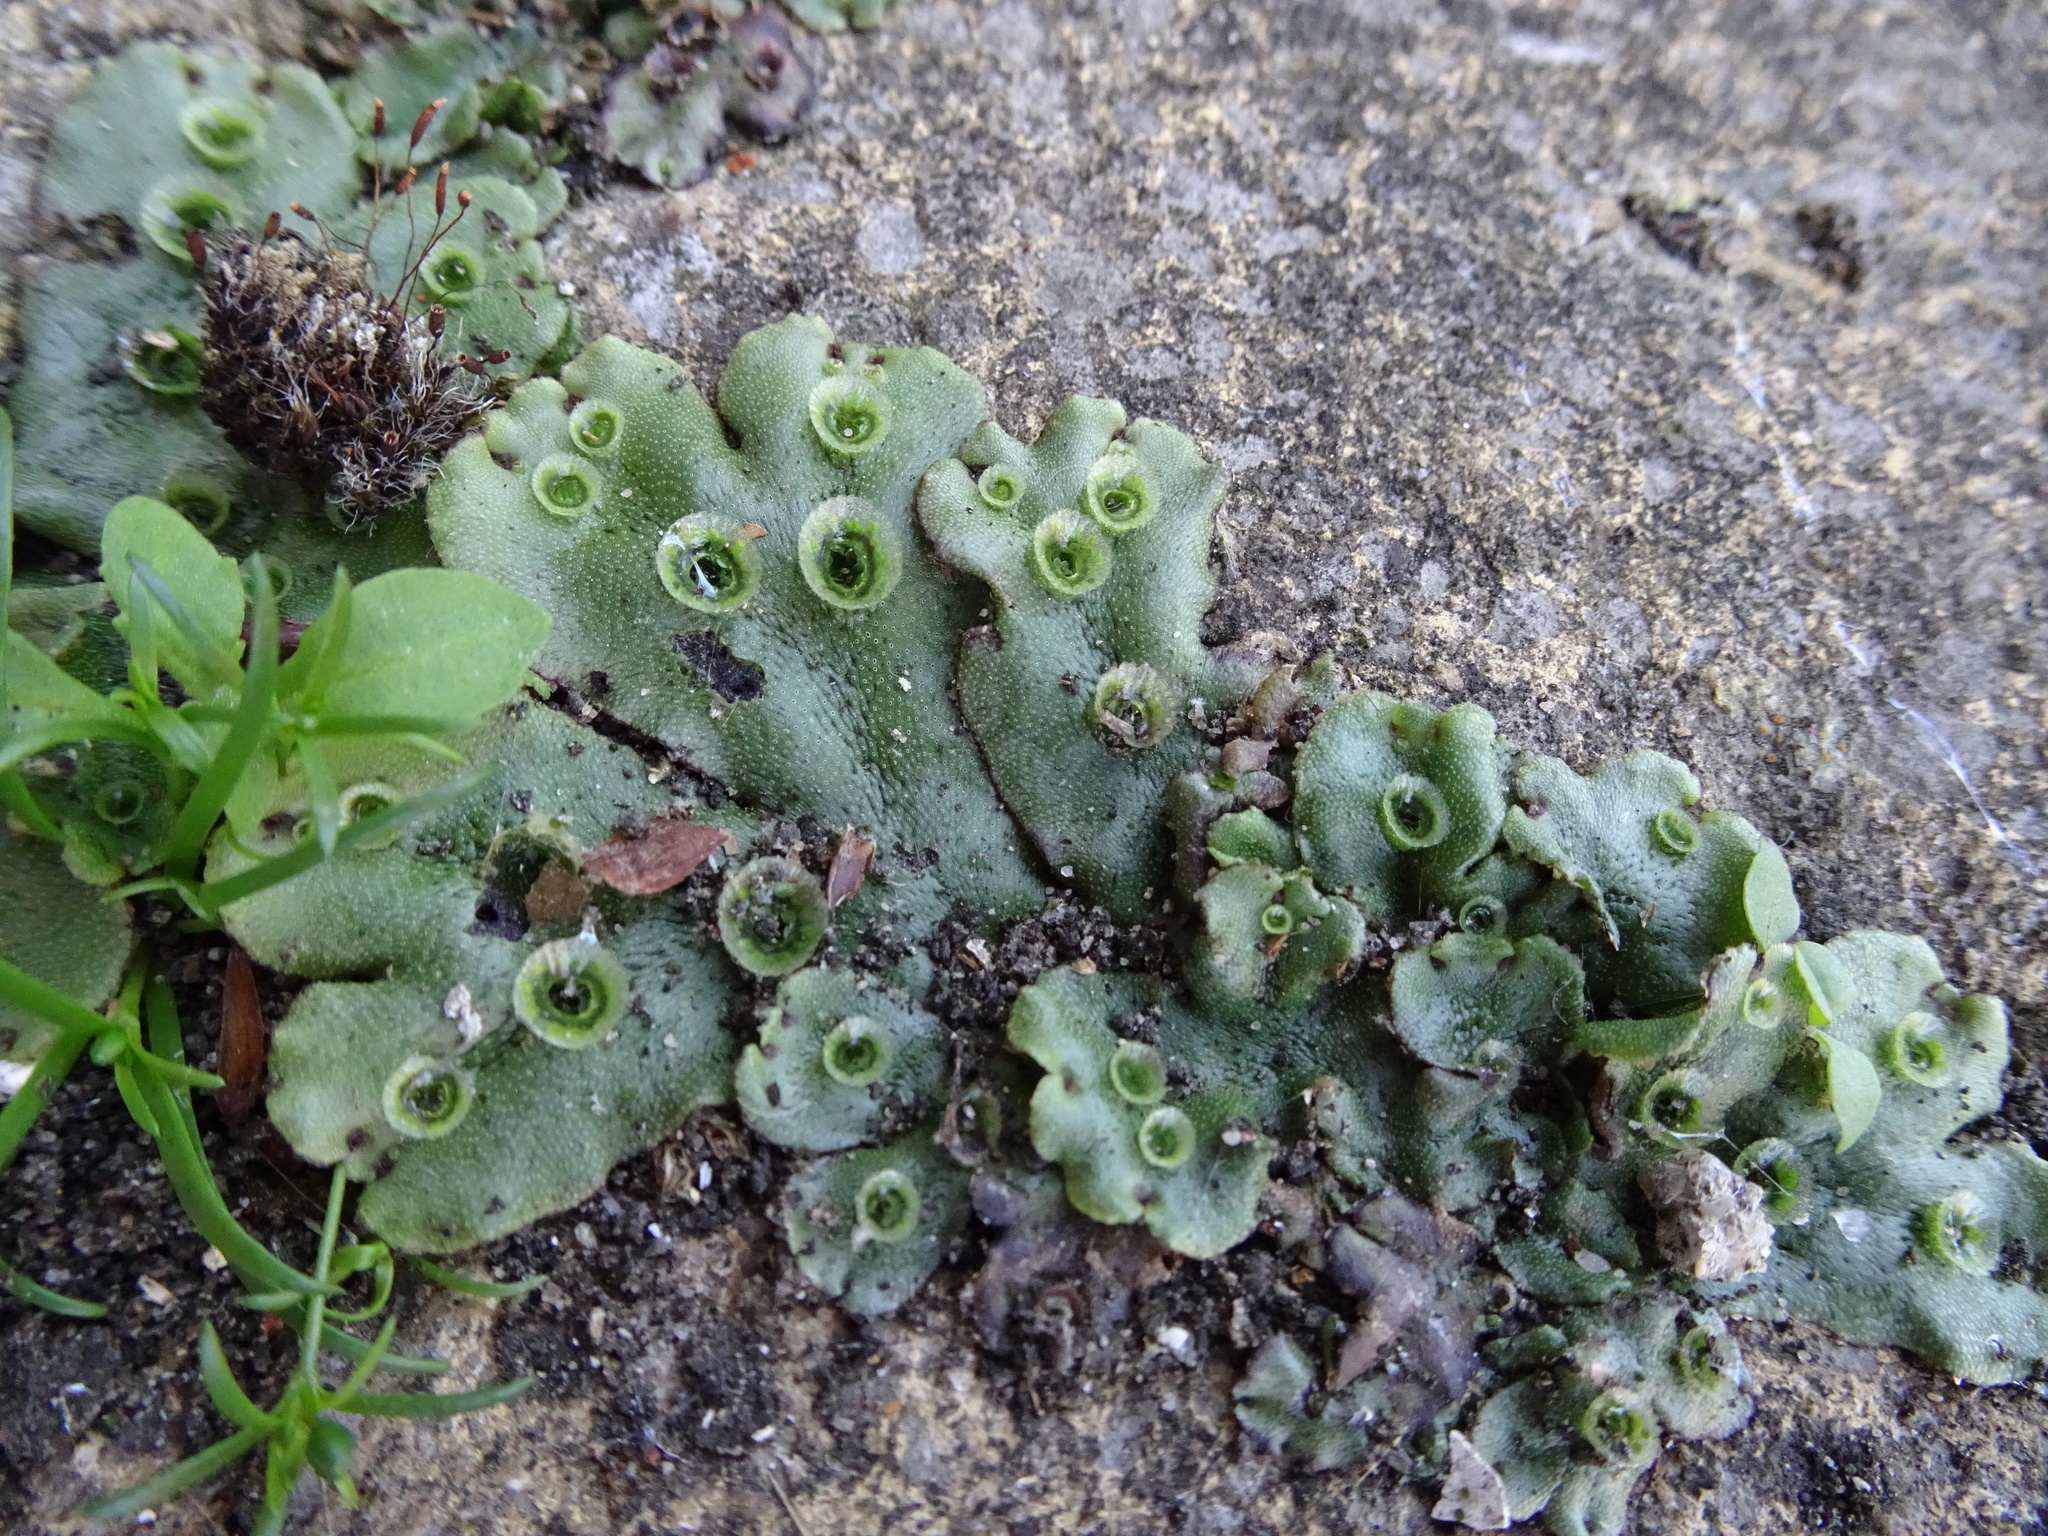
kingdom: Plantae
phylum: Marchantiophyta
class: Marchantiopsida
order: Marchantiales
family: Marchantiaceae
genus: Marchantia
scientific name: Marchantia polymorpha
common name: Common liverwort
